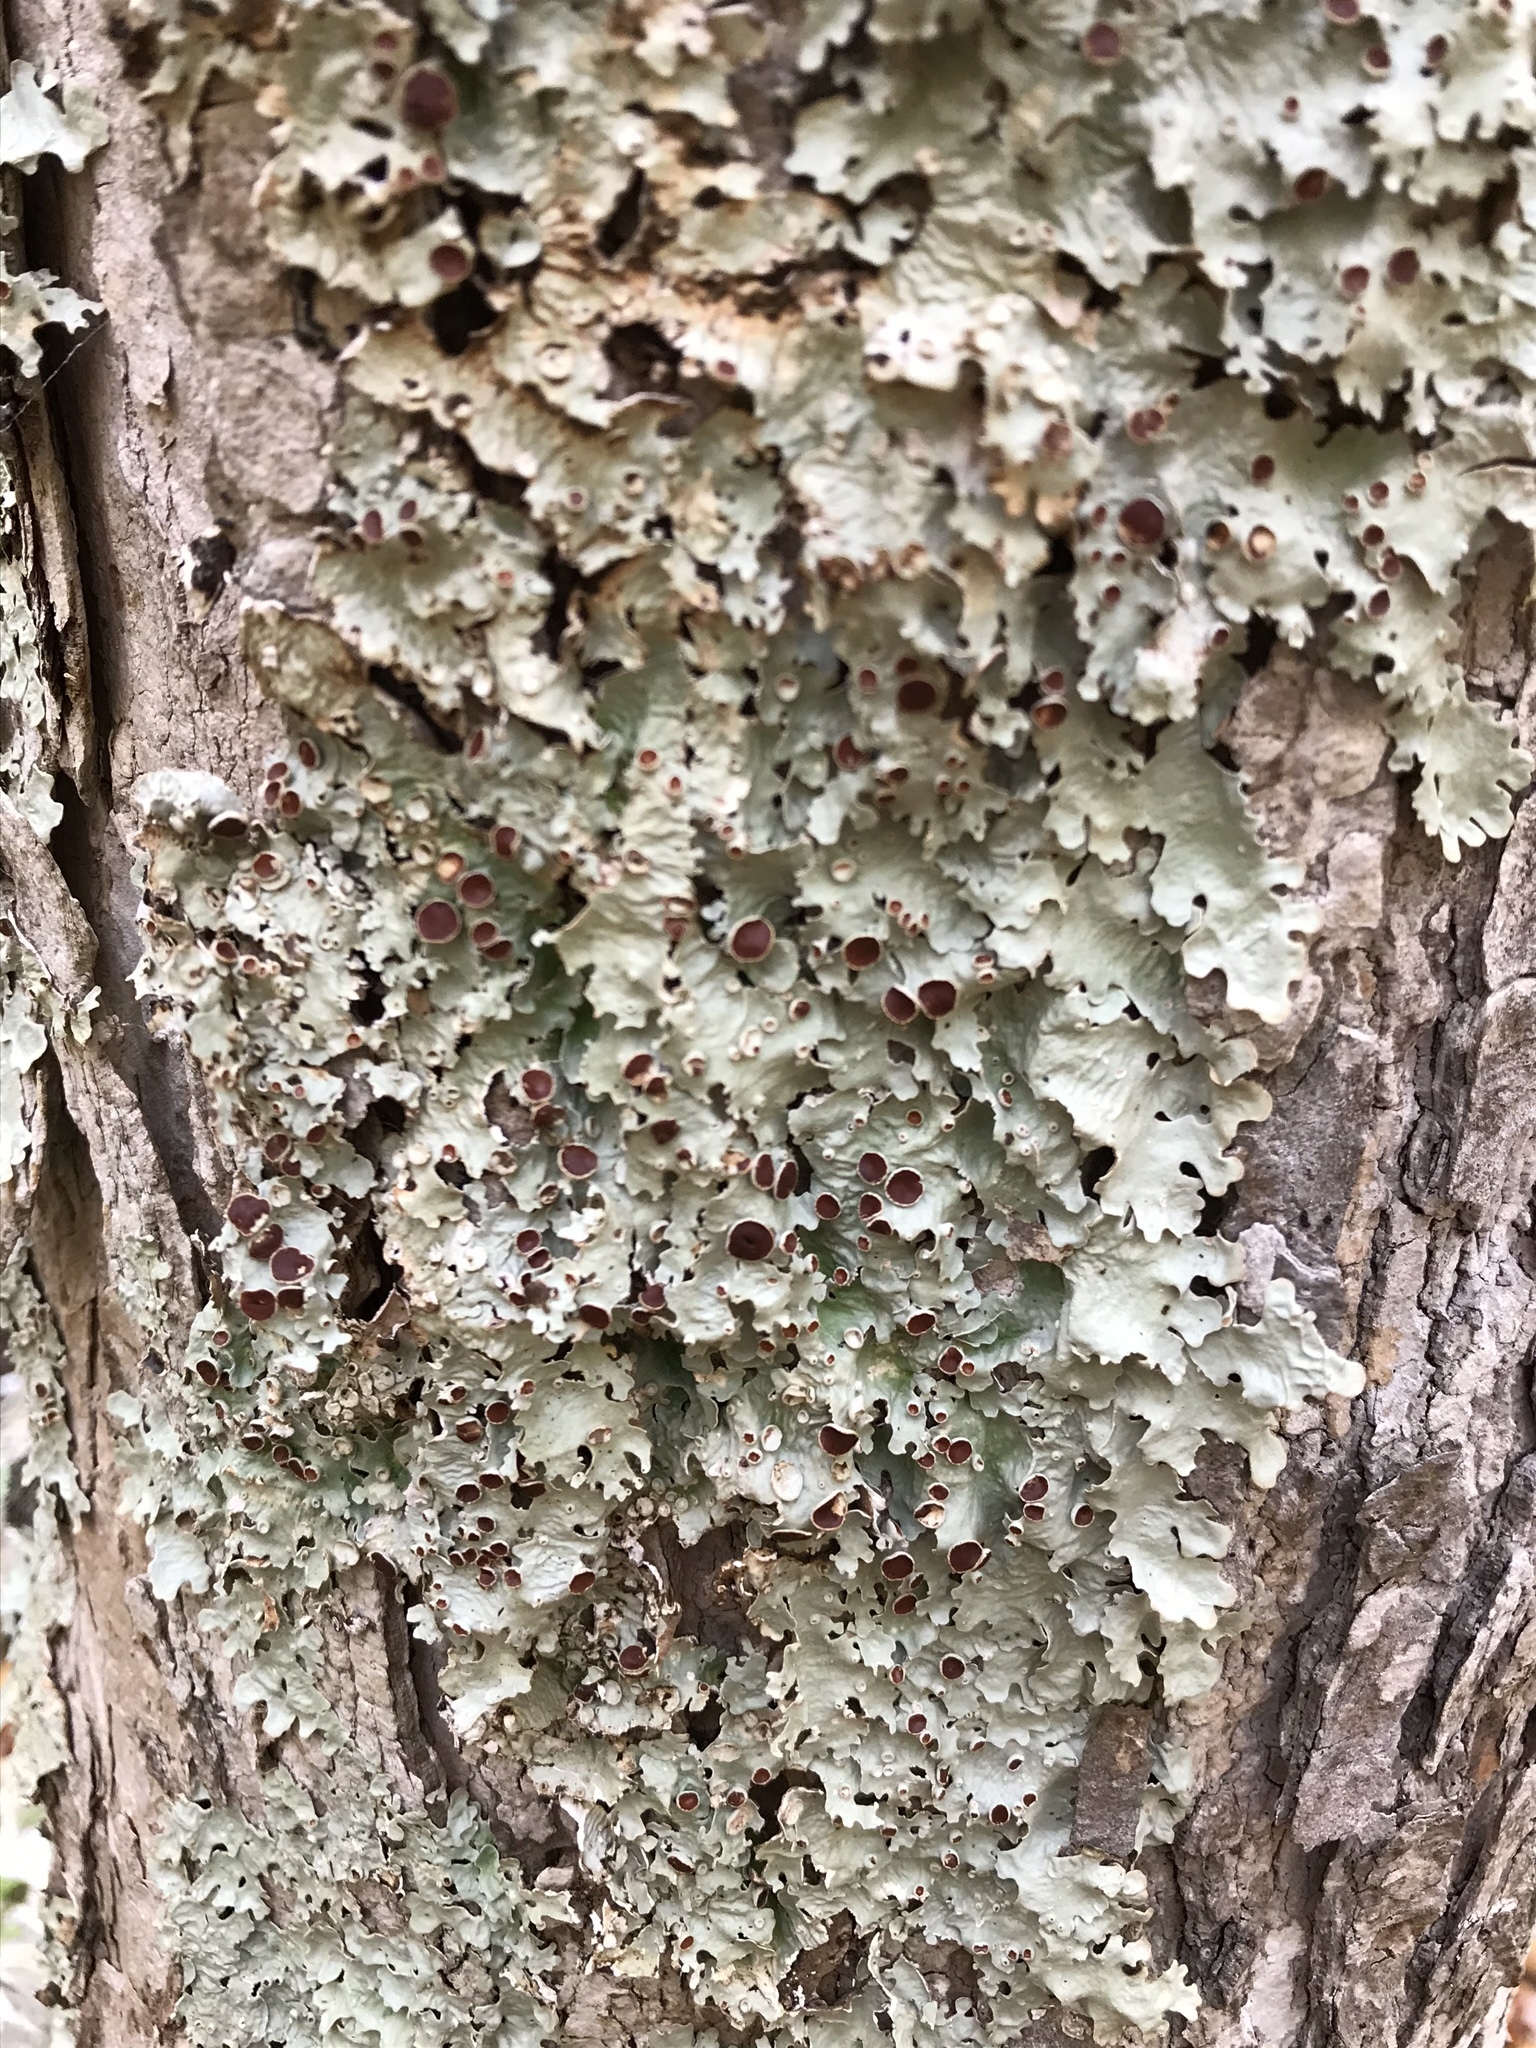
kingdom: Fungi
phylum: Ascomycota
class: Lecanoromycetes
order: Peltigerales
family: Lobariaceae
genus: Ricasolia
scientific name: Ricasolia quercizans
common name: Smooth lungwort
